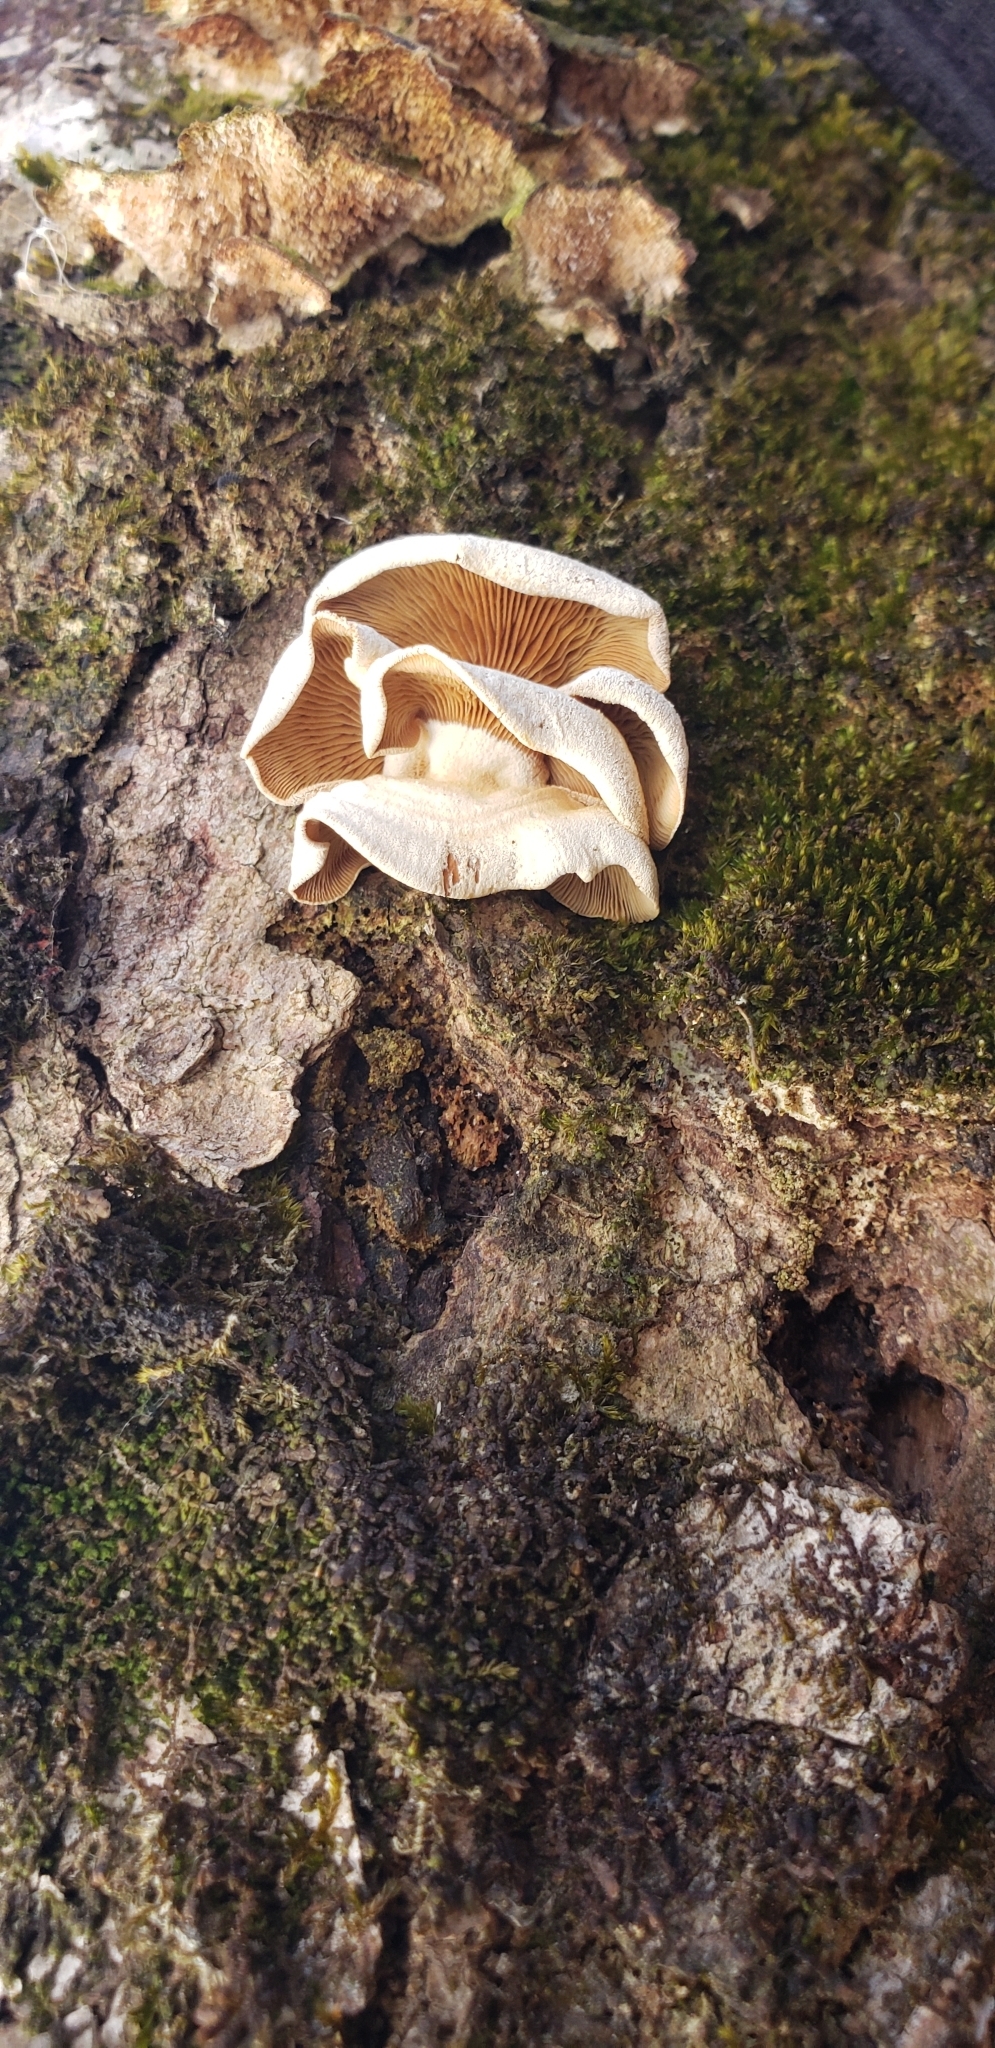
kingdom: Fungi
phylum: Basidiomycota
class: Agaricomycetes
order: Agaricales
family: Mycenaceae
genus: Panellus
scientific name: Panellus stipticus
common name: Bitter oysterling
